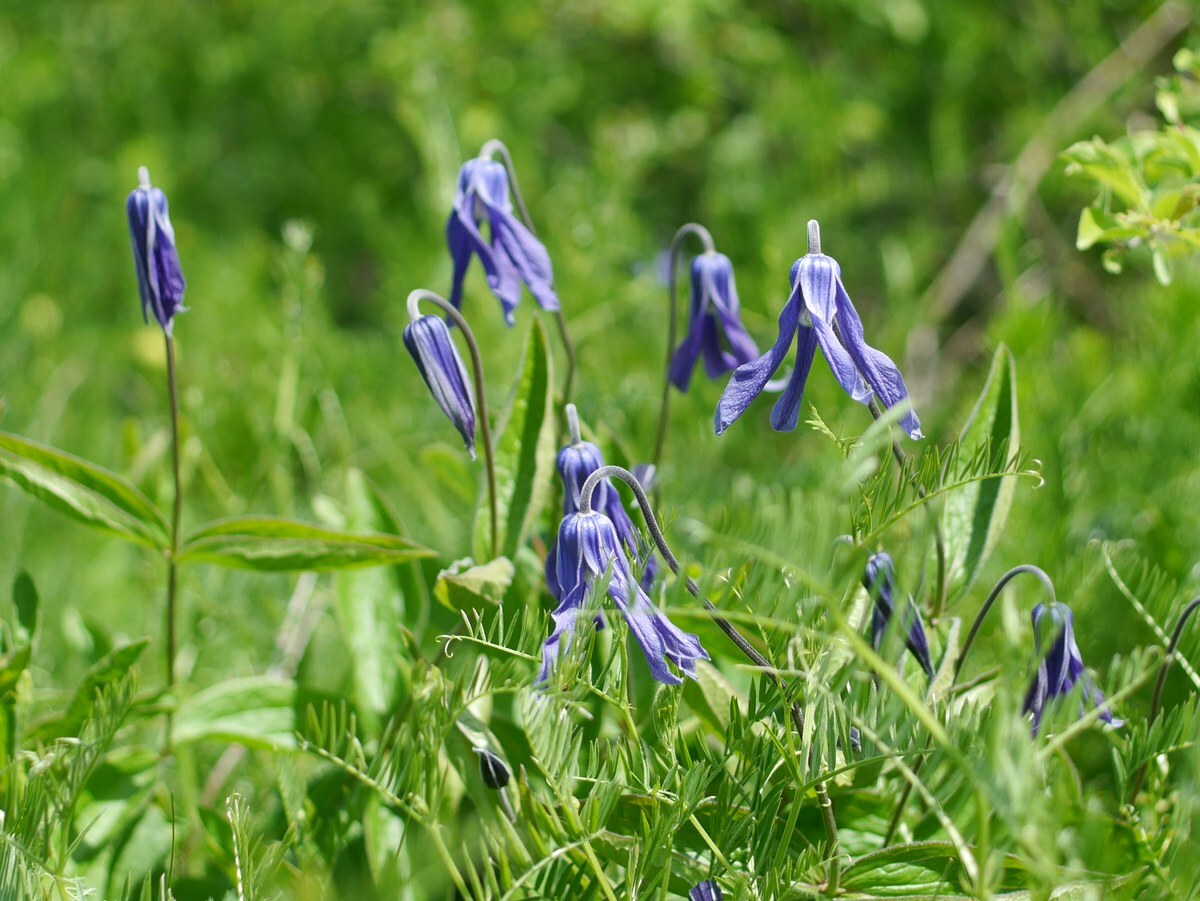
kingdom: Plantae
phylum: Tracheophyta
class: Magnoliopsida
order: Ranunculales
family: Ranunculaceae
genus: Clematis
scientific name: Clematis integrifolia
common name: Solitary clematis
